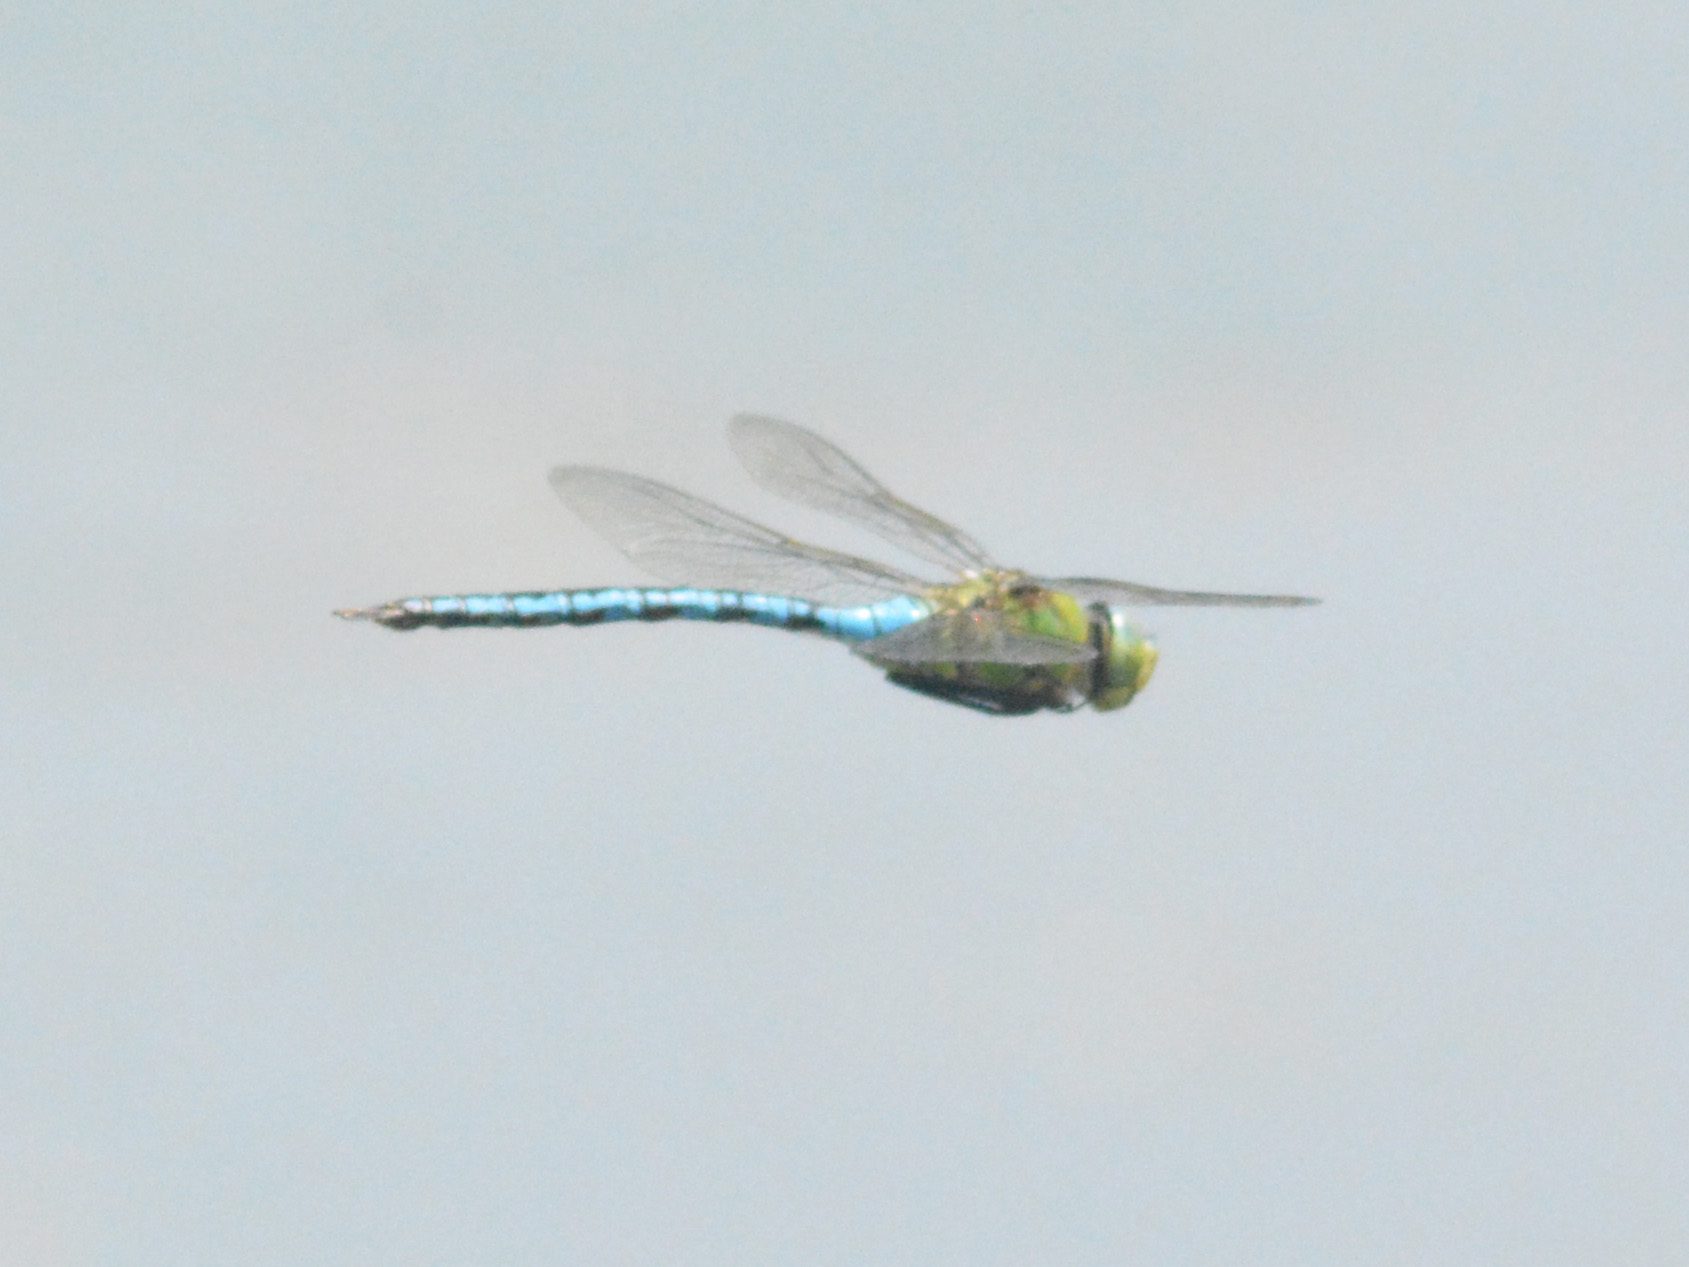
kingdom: Animalia
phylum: Arthropoda
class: Insecta
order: Odonata
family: Aeshnidae
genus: Anax
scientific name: Anax imperator
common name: Emperor dragonfly
